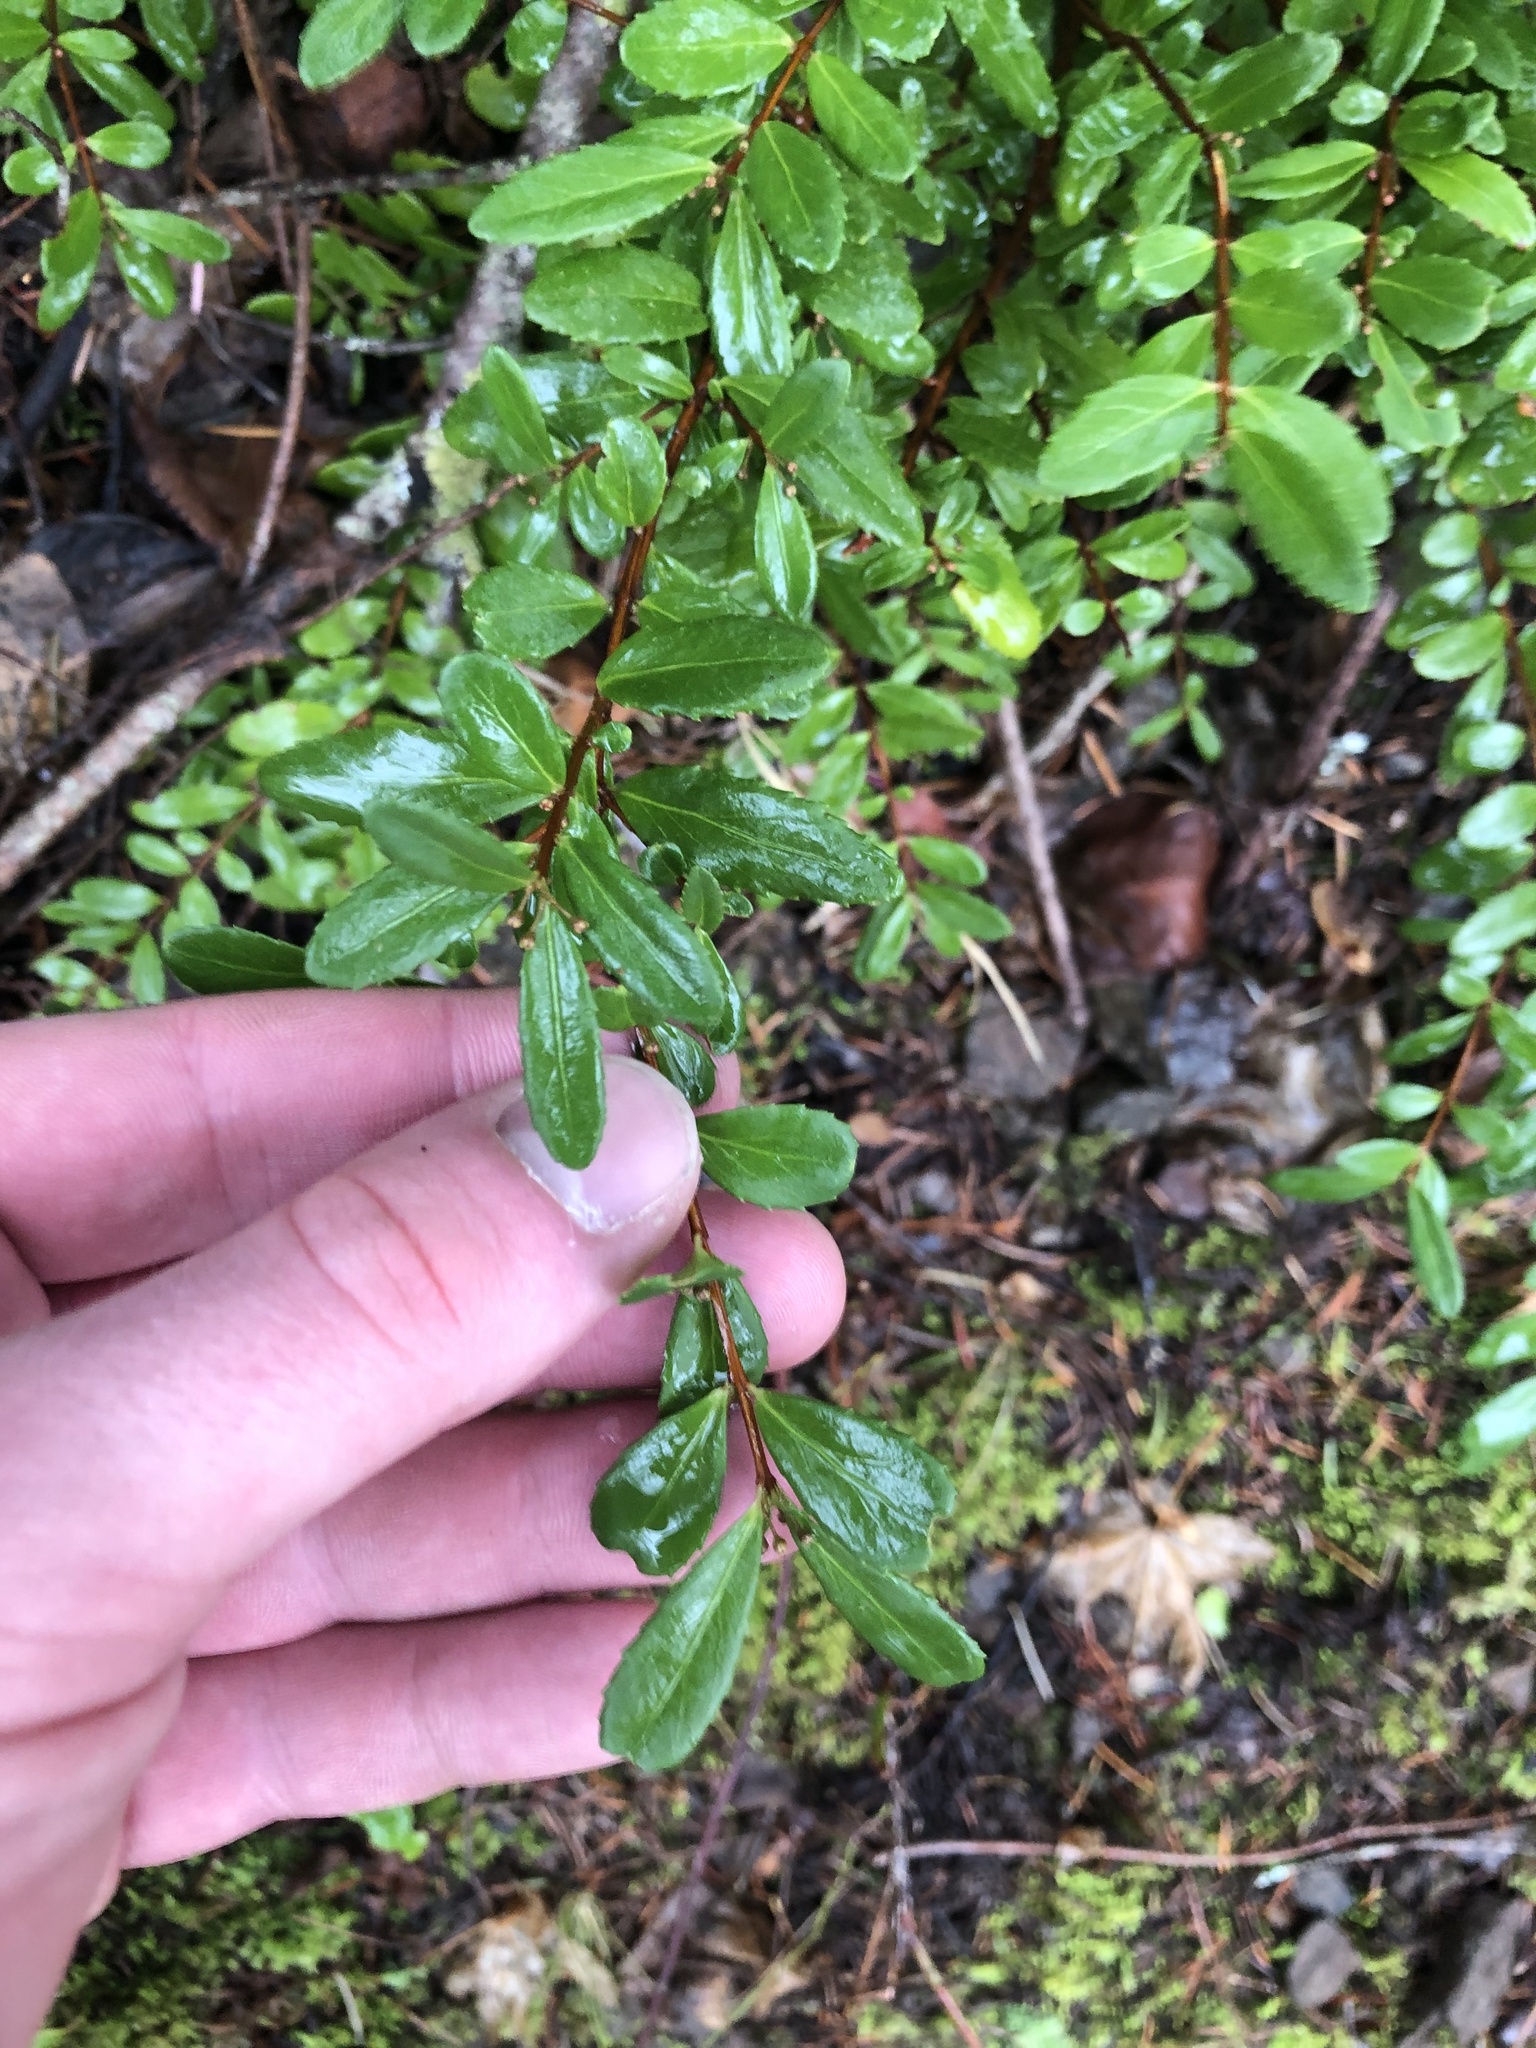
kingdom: Plantae
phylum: Tracheophyta
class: Magnoliopsida
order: Celastrales
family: Celastraceae
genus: Paxistima
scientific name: Paxistima myrsinites
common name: Mountain-lover
